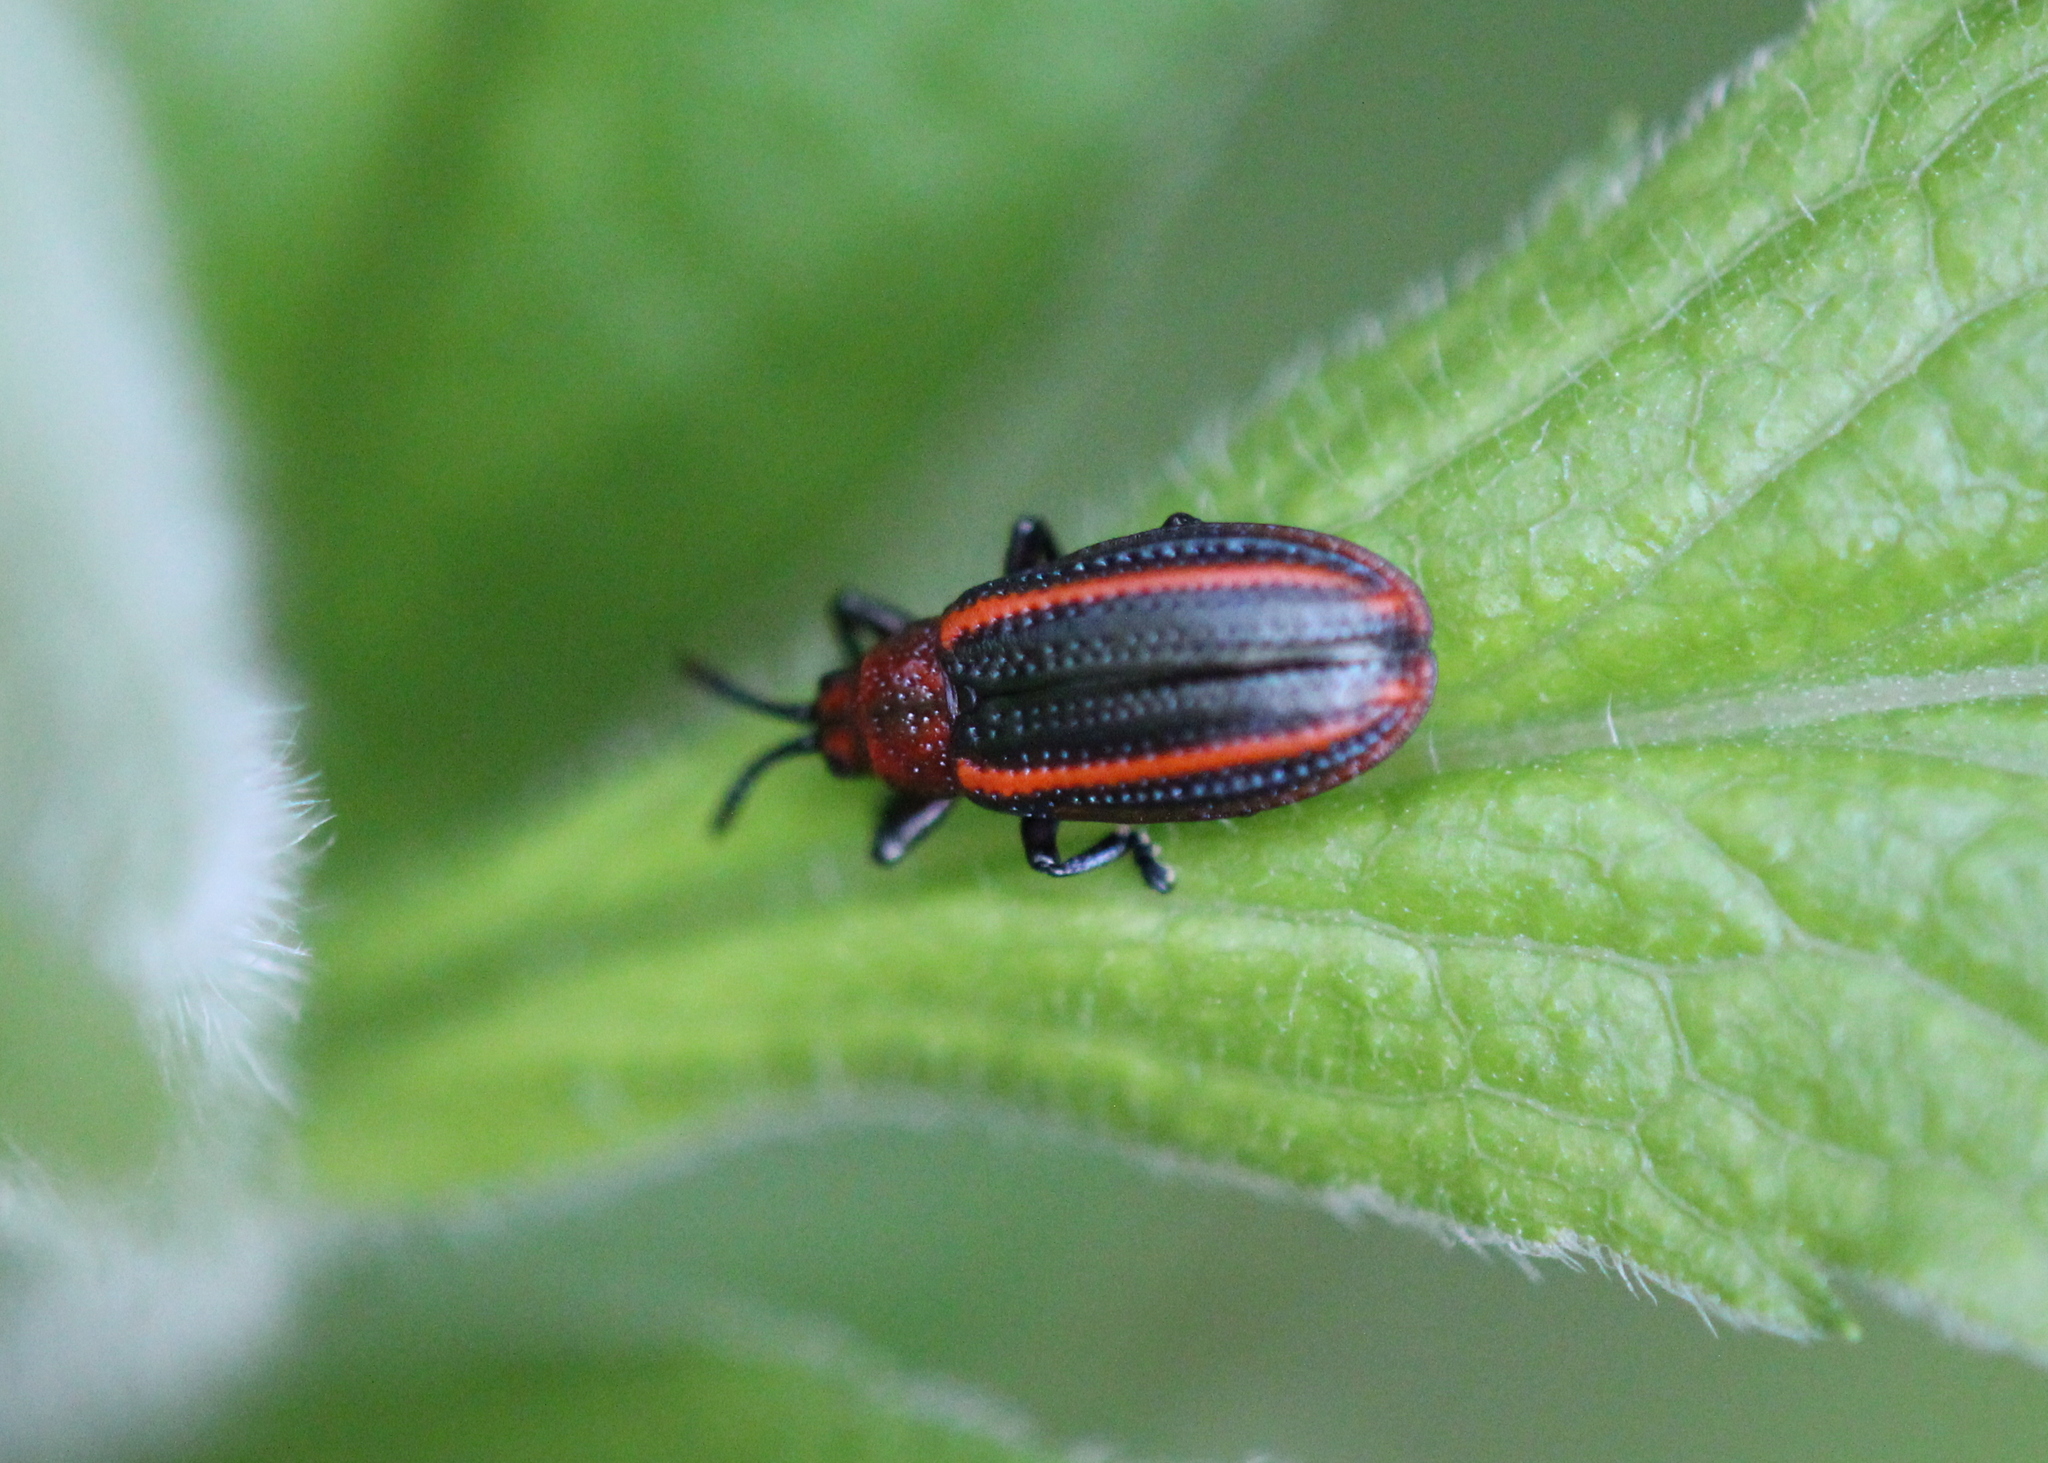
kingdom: Animalia
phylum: Arthropoda
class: Insecta
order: Coleoptera
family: Chrysomelidae
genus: Microrhopala
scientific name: Microrhopala vittata
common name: Goldenrod leaf miner beetle
